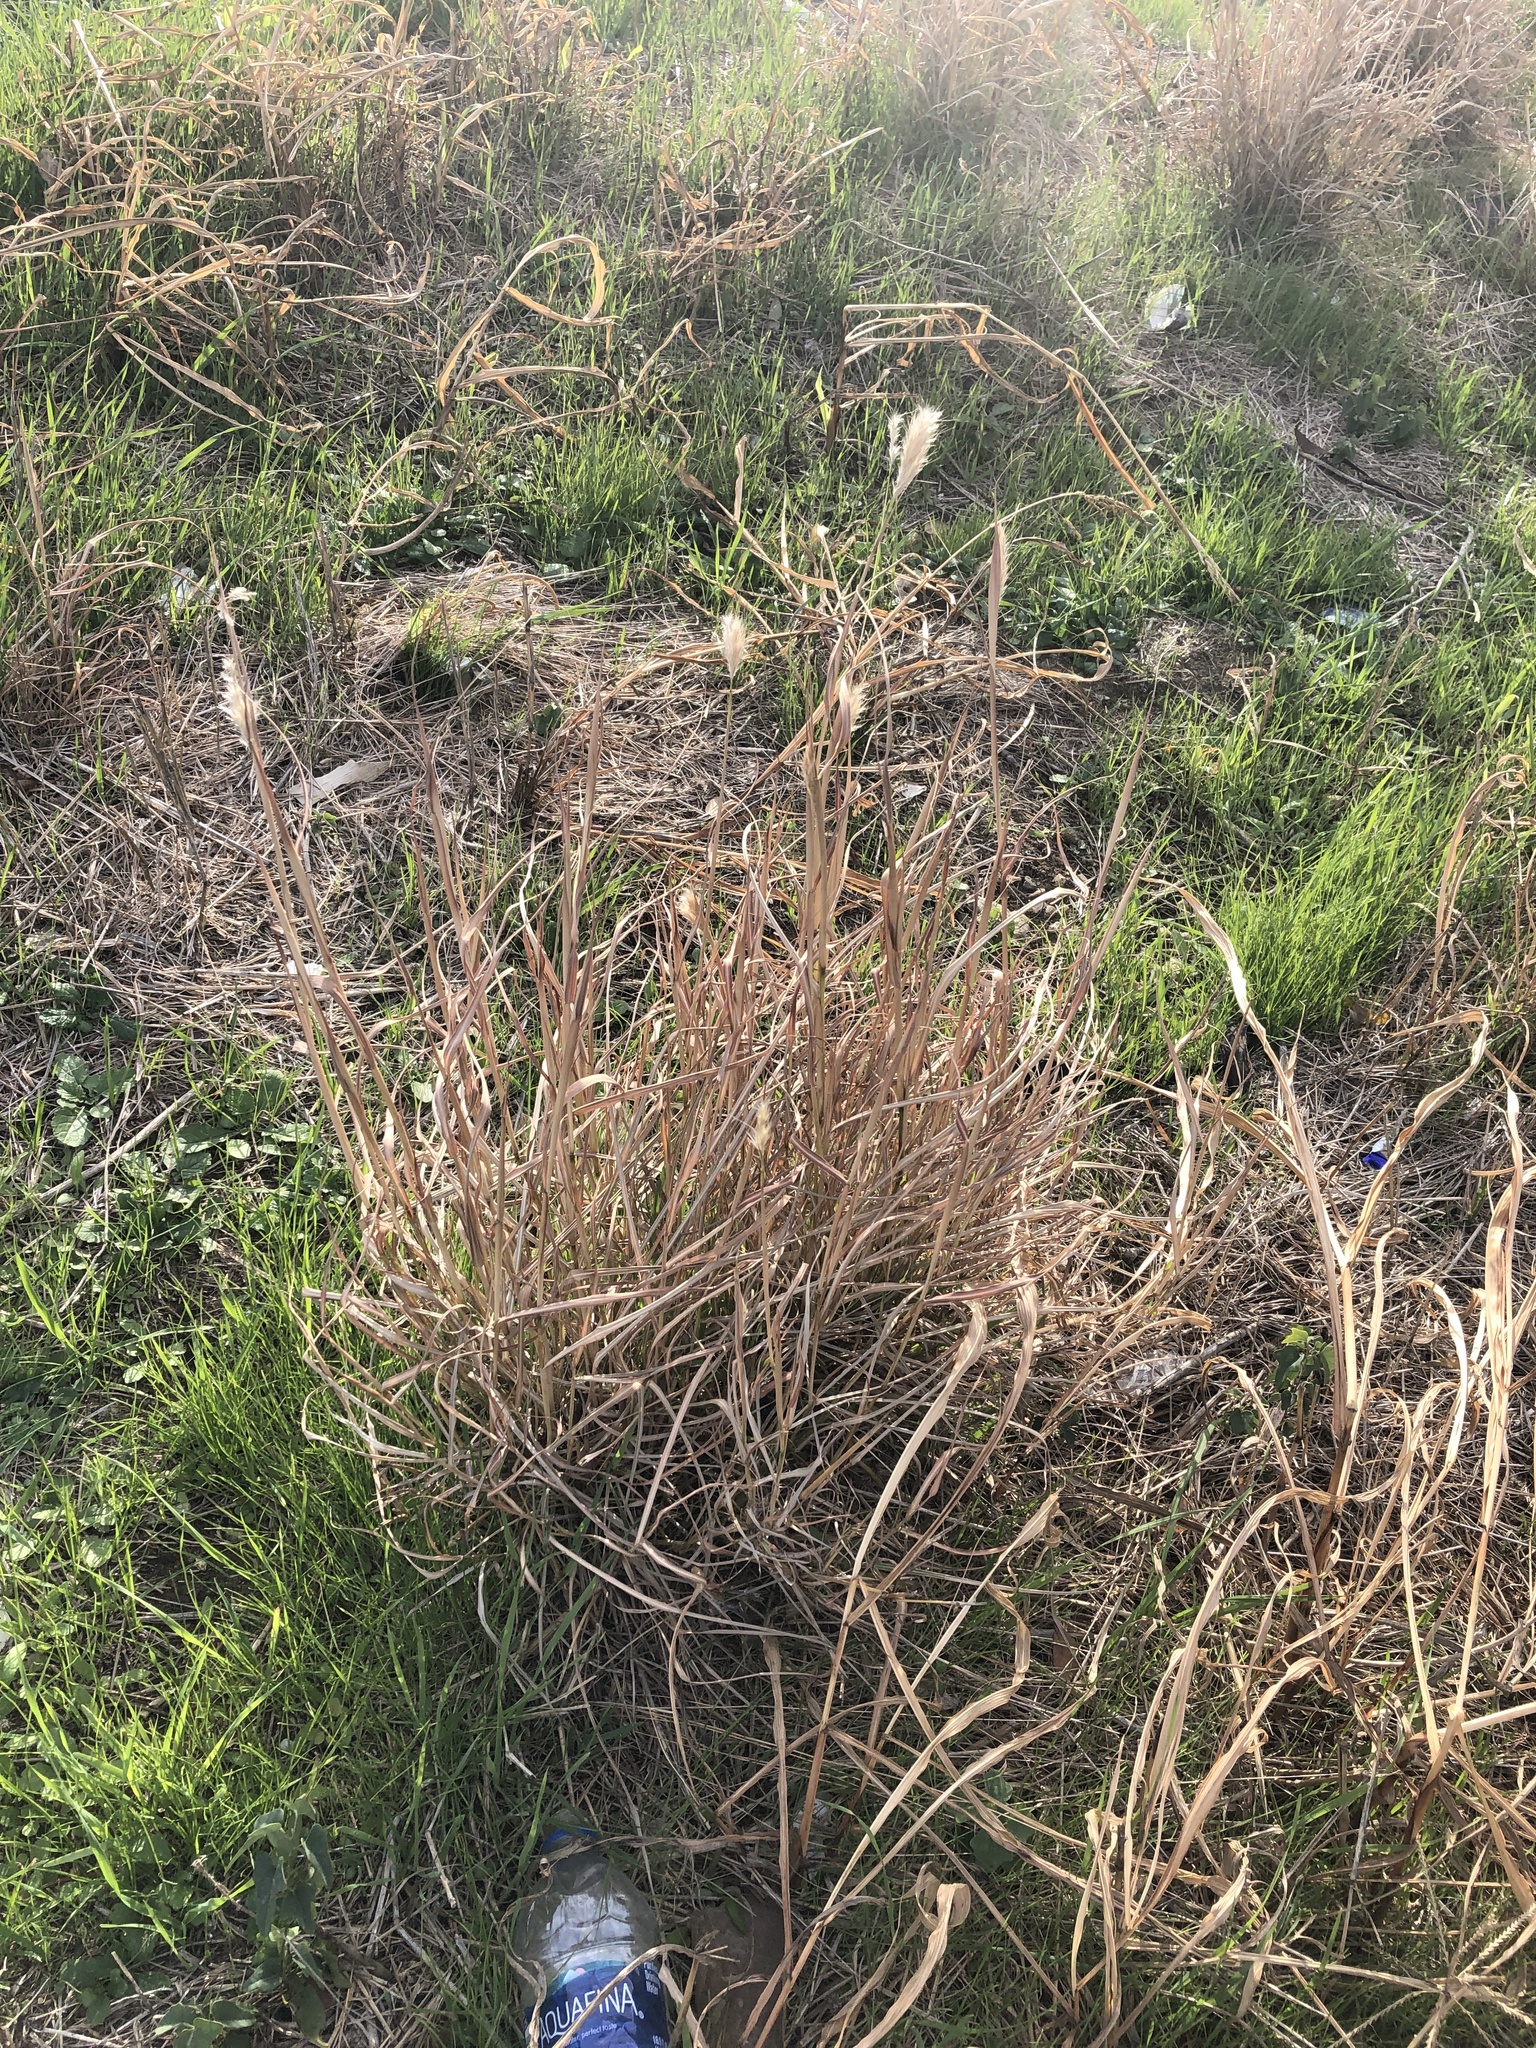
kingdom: Plantae
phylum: Tracheophyta
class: Liliopsida
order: Poales
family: Poaceae
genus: Bothriochloa
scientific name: Bothriochloa torreyana
